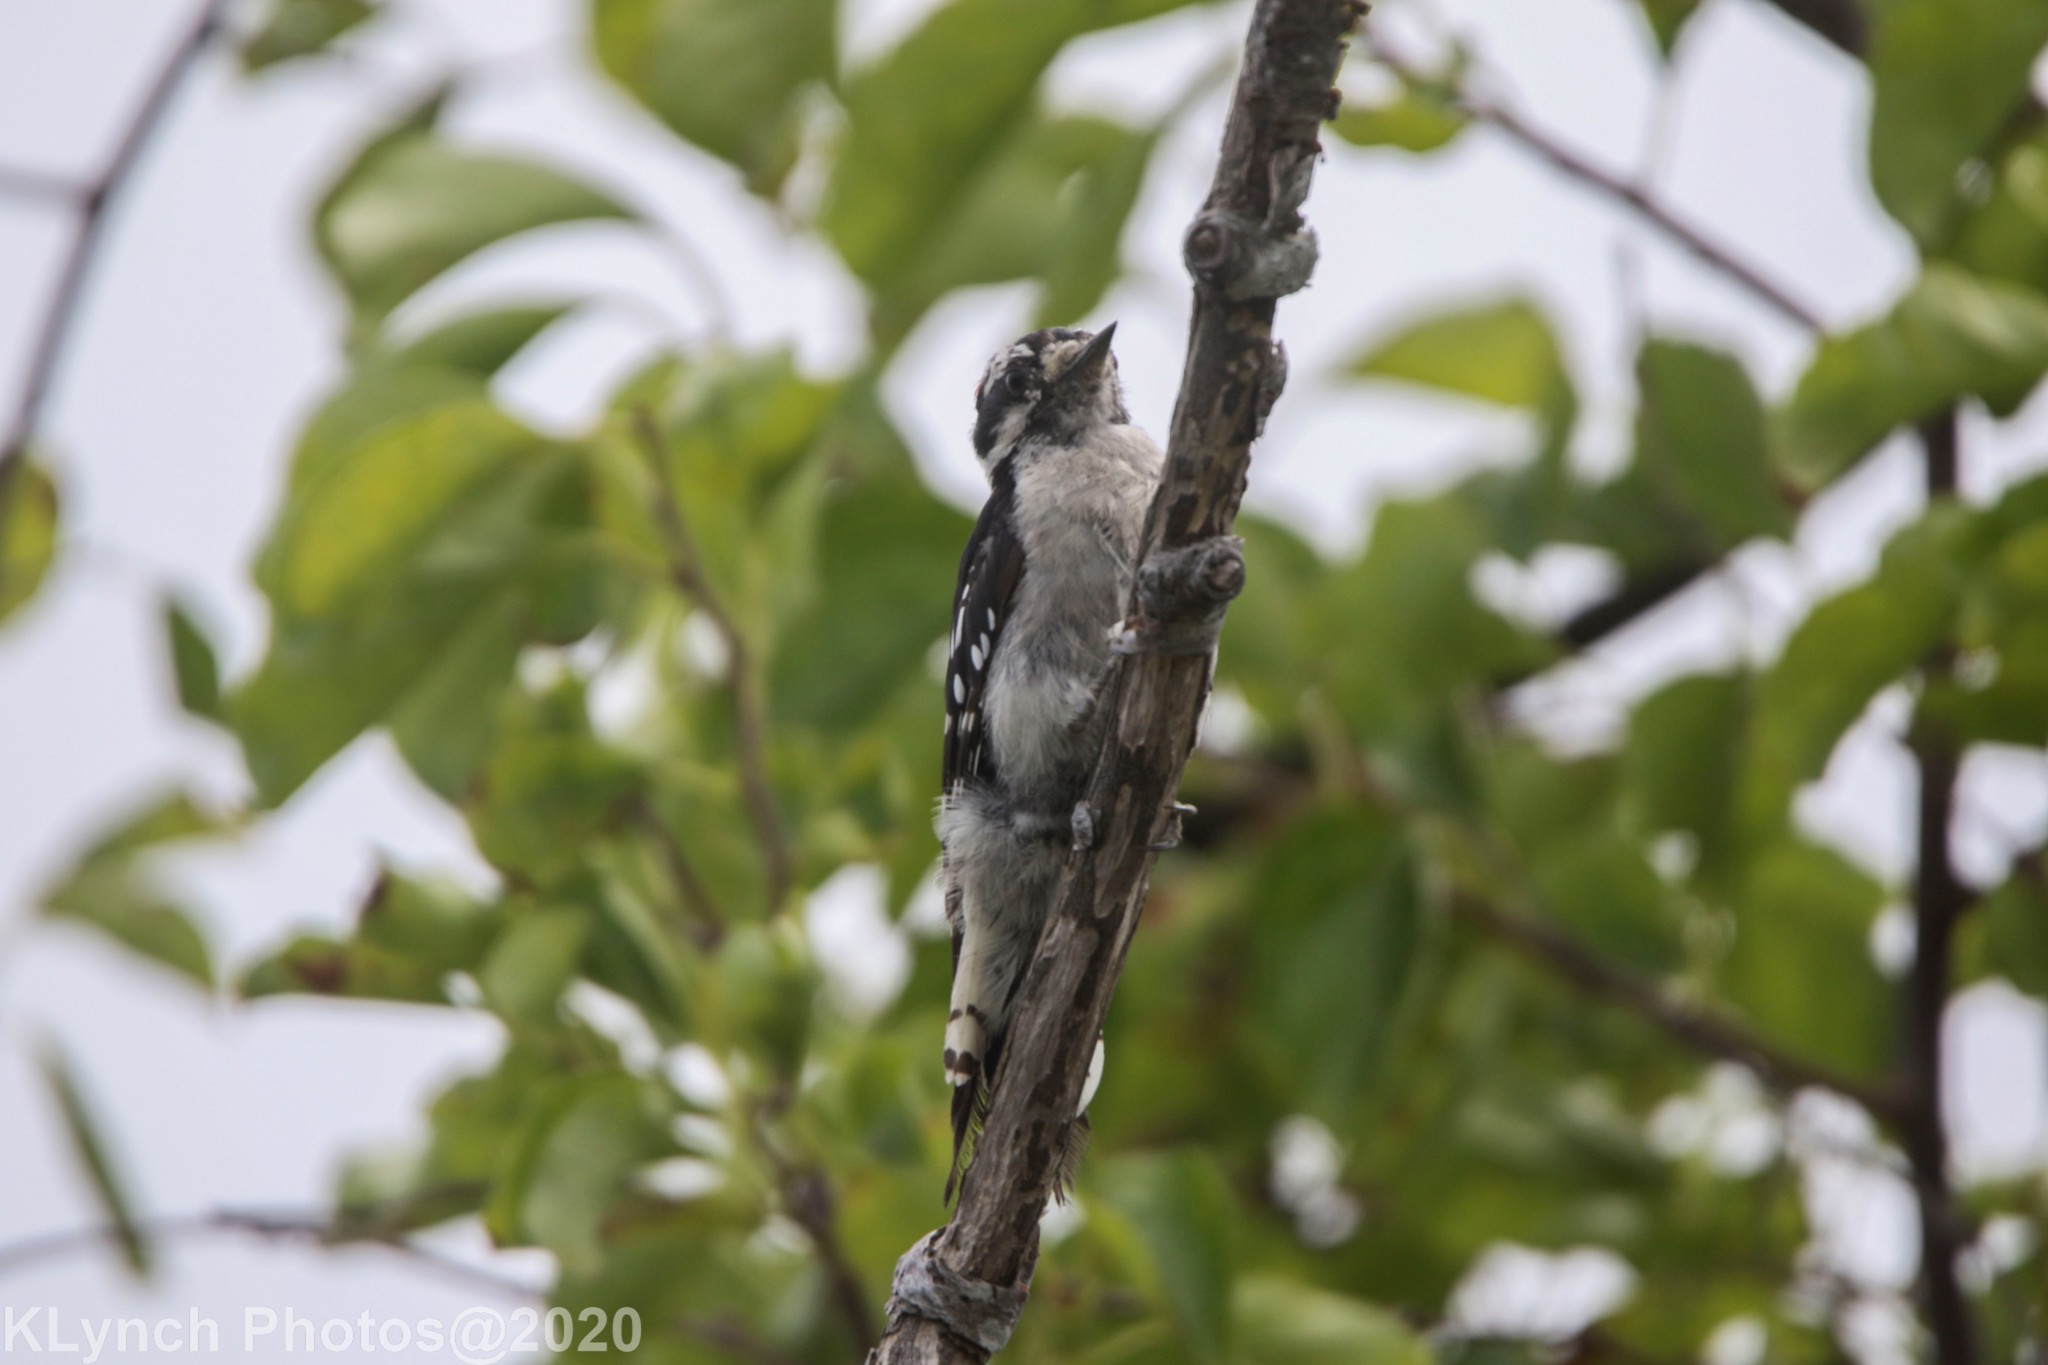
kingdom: Animalia
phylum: Chordata
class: Aves
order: Piciformes
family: Picidae
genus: Dryobates
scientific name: Dryobates pubescens
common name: Downy woodpecker
